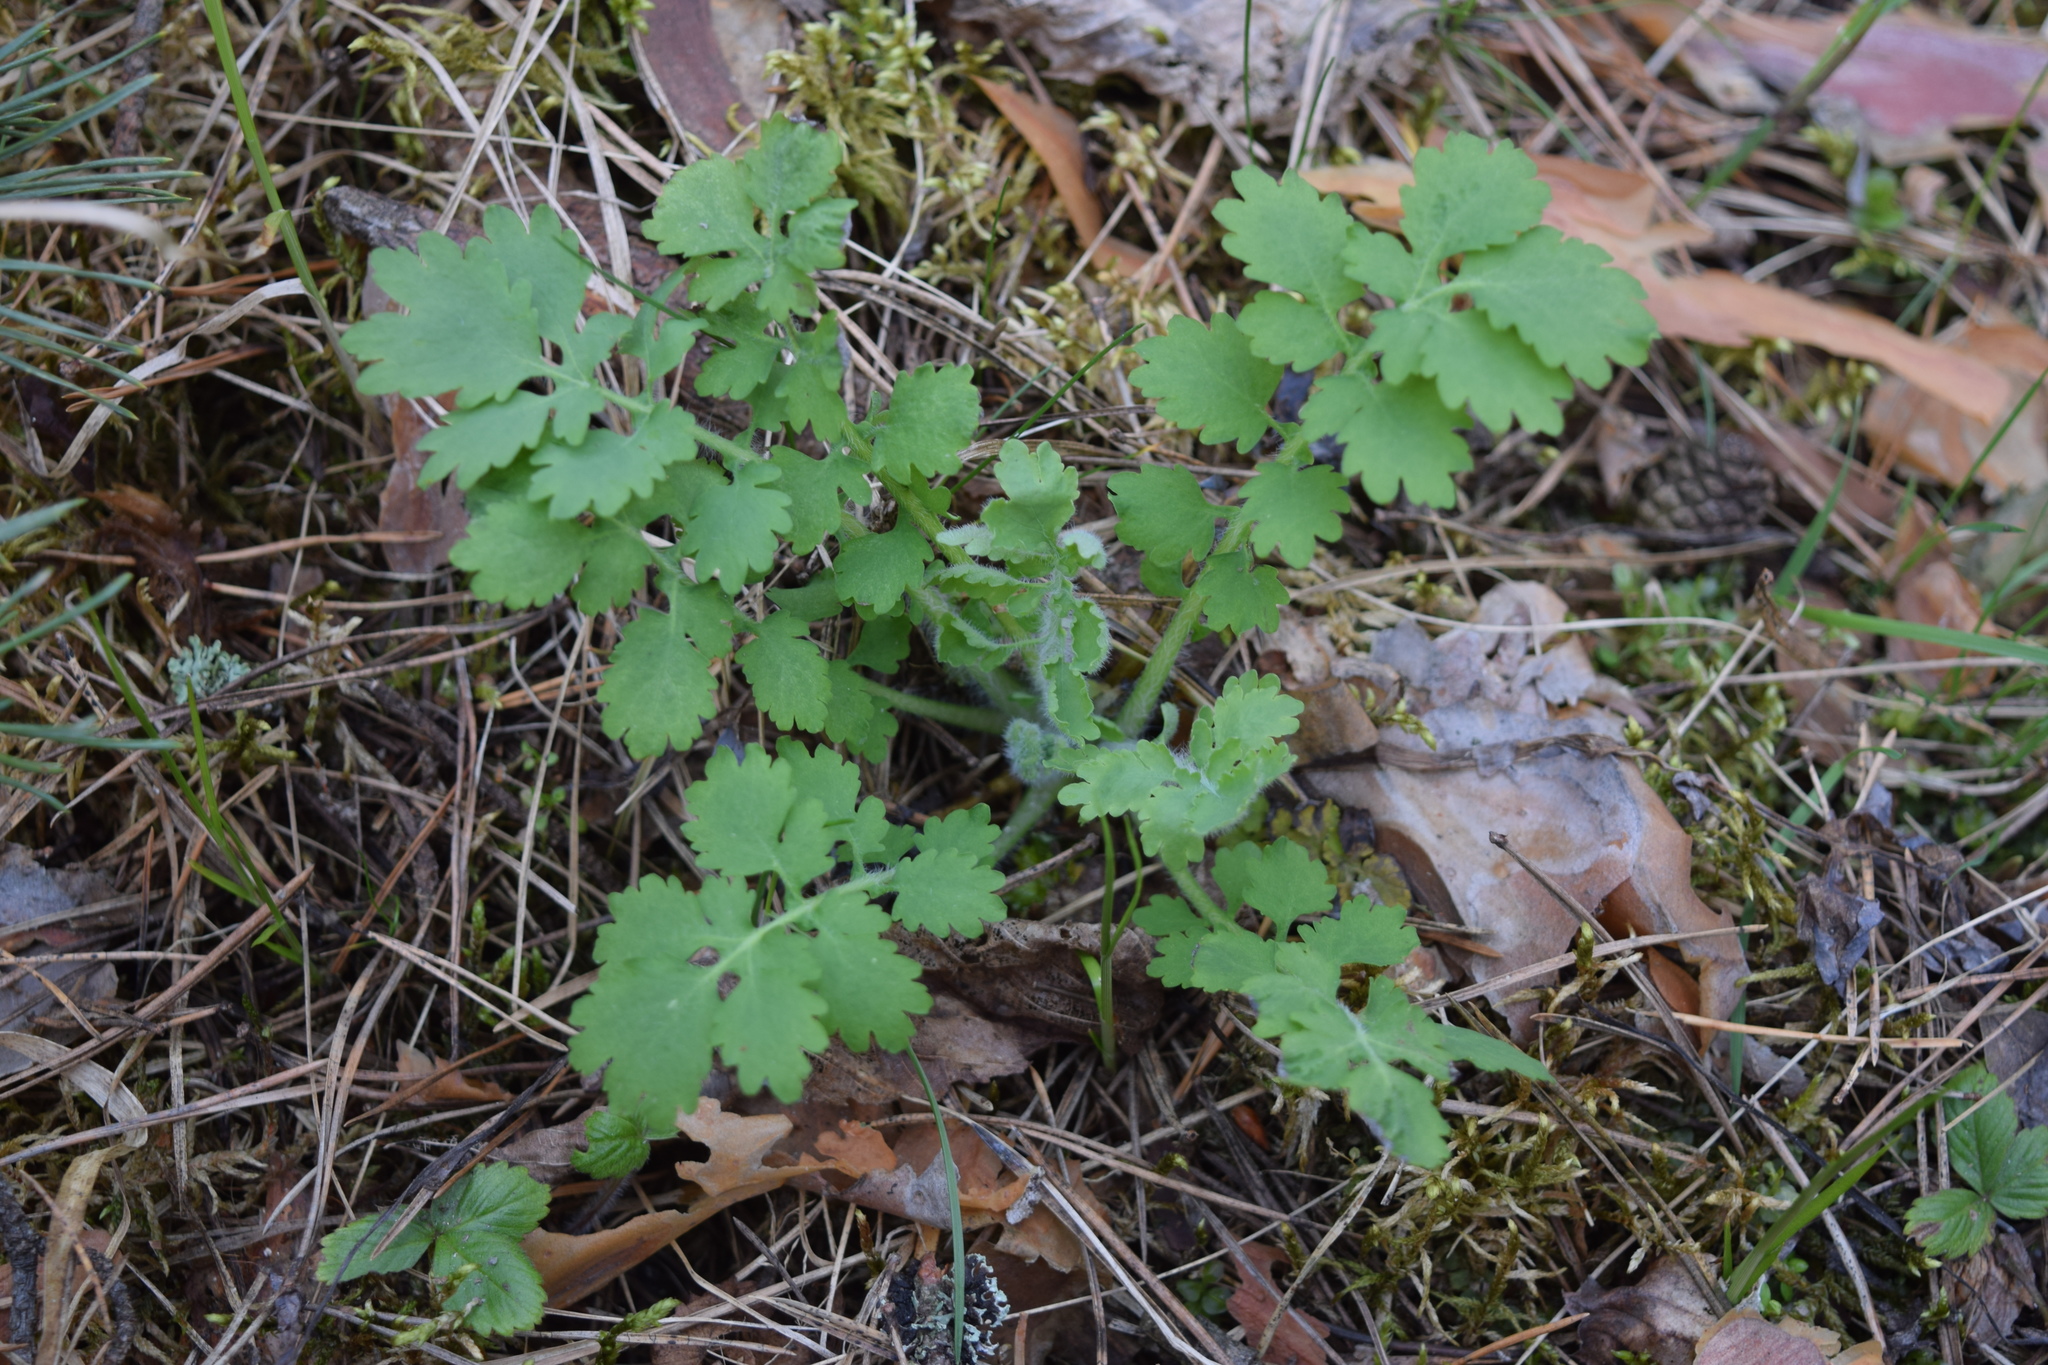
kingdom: Plantae
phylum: Tracheophyta
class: Magnoliopsida
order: Ranunculales
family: Papaveraceae
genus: Chelidonium
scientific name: Chelidonium majus
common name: Greater celandine
